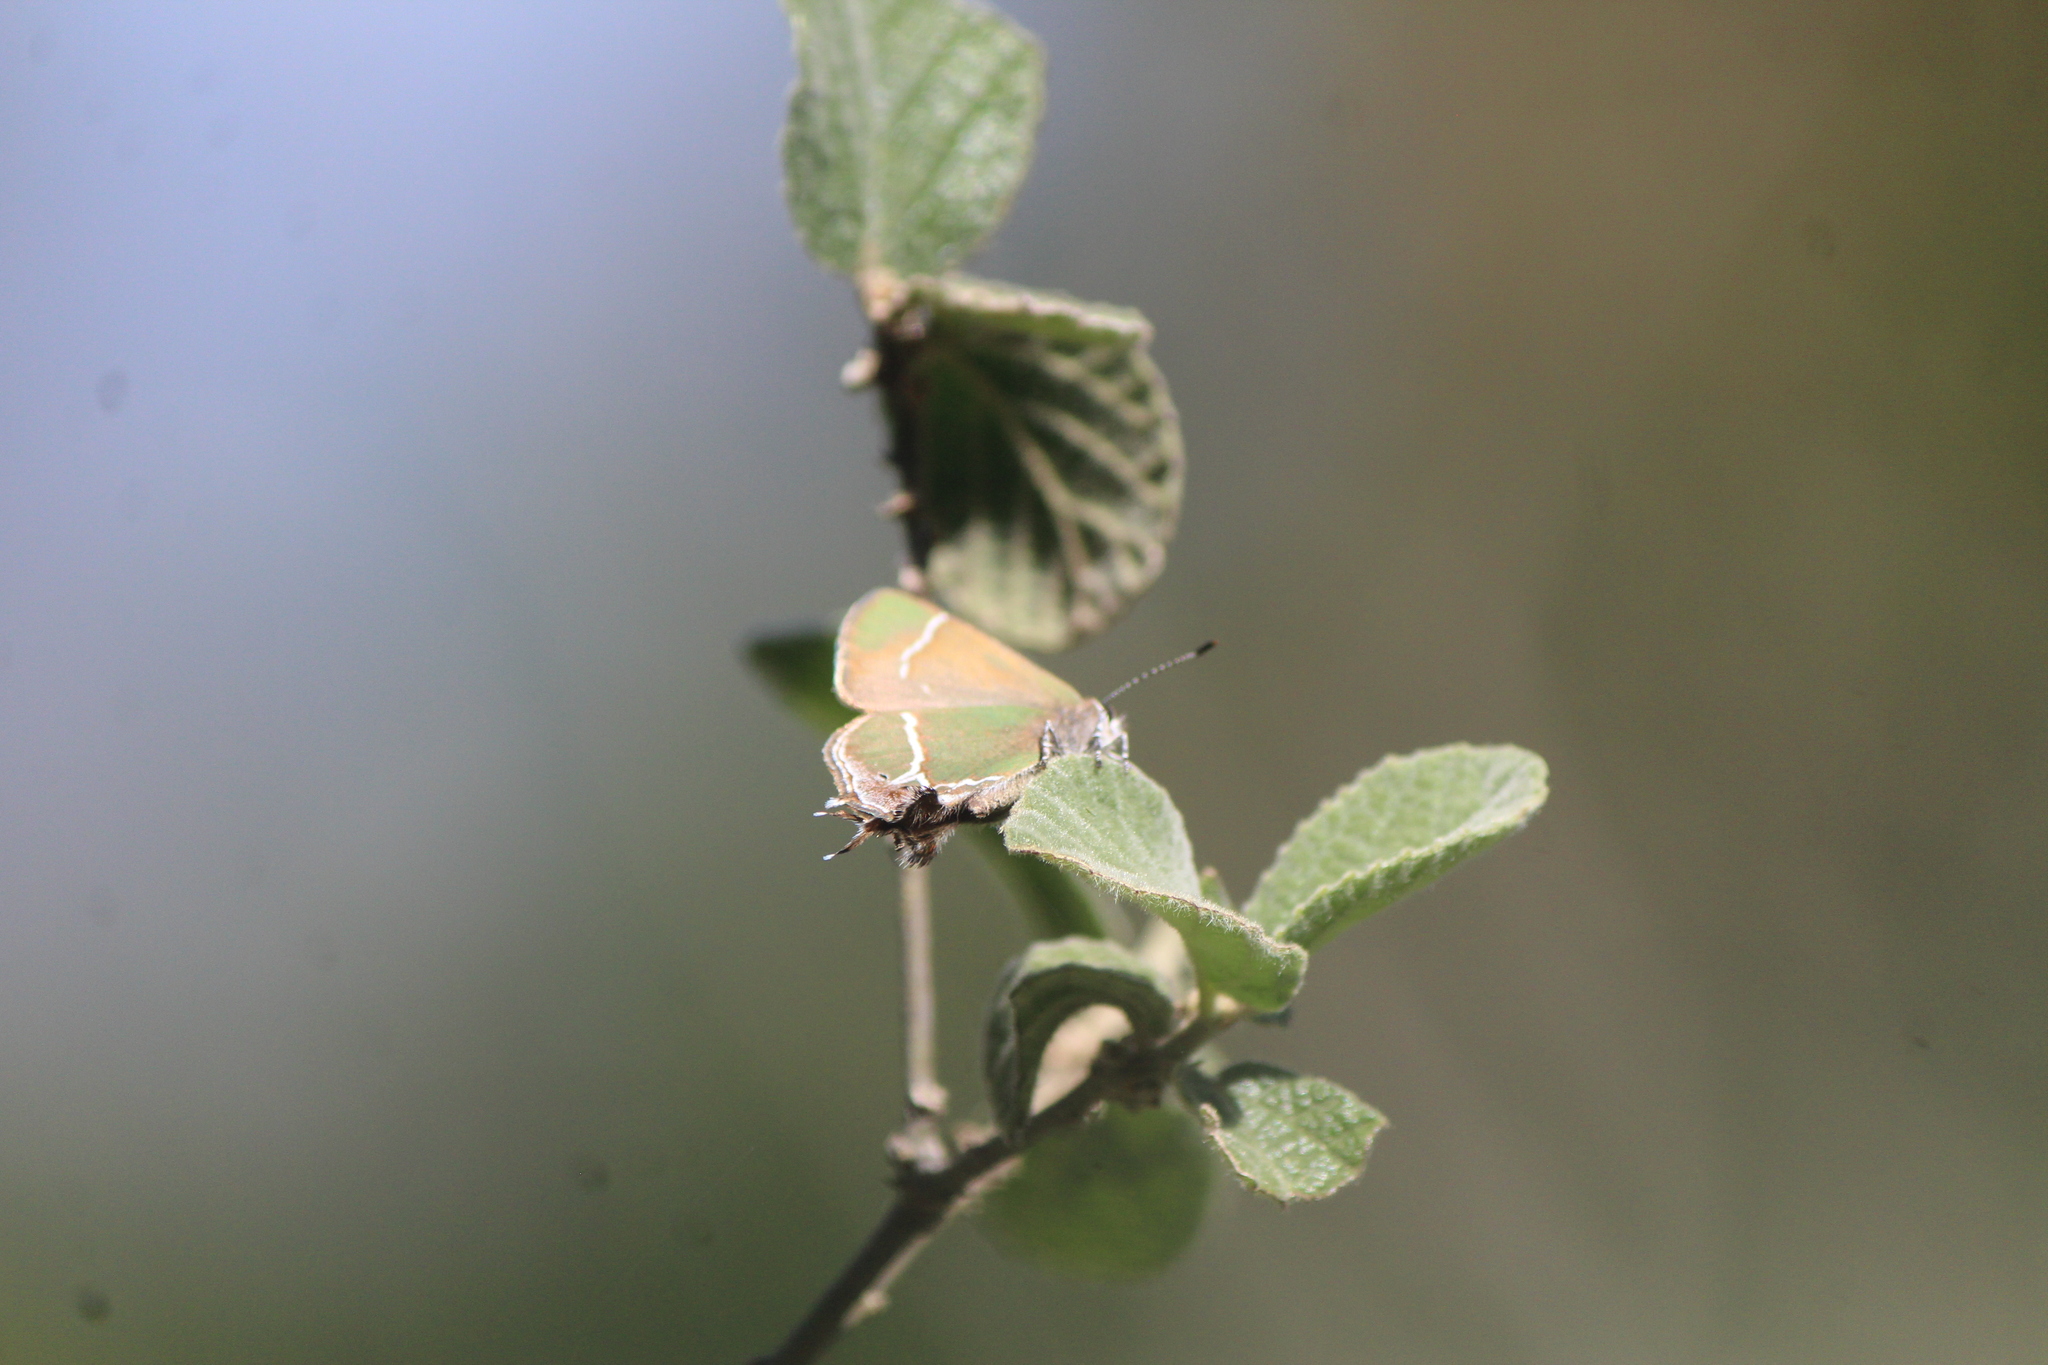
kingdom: Animalia
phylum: Arthropoda
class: Insecta
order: Lepidoptera
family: Lycaenidae
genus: Xamia
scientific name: Xamia xami
